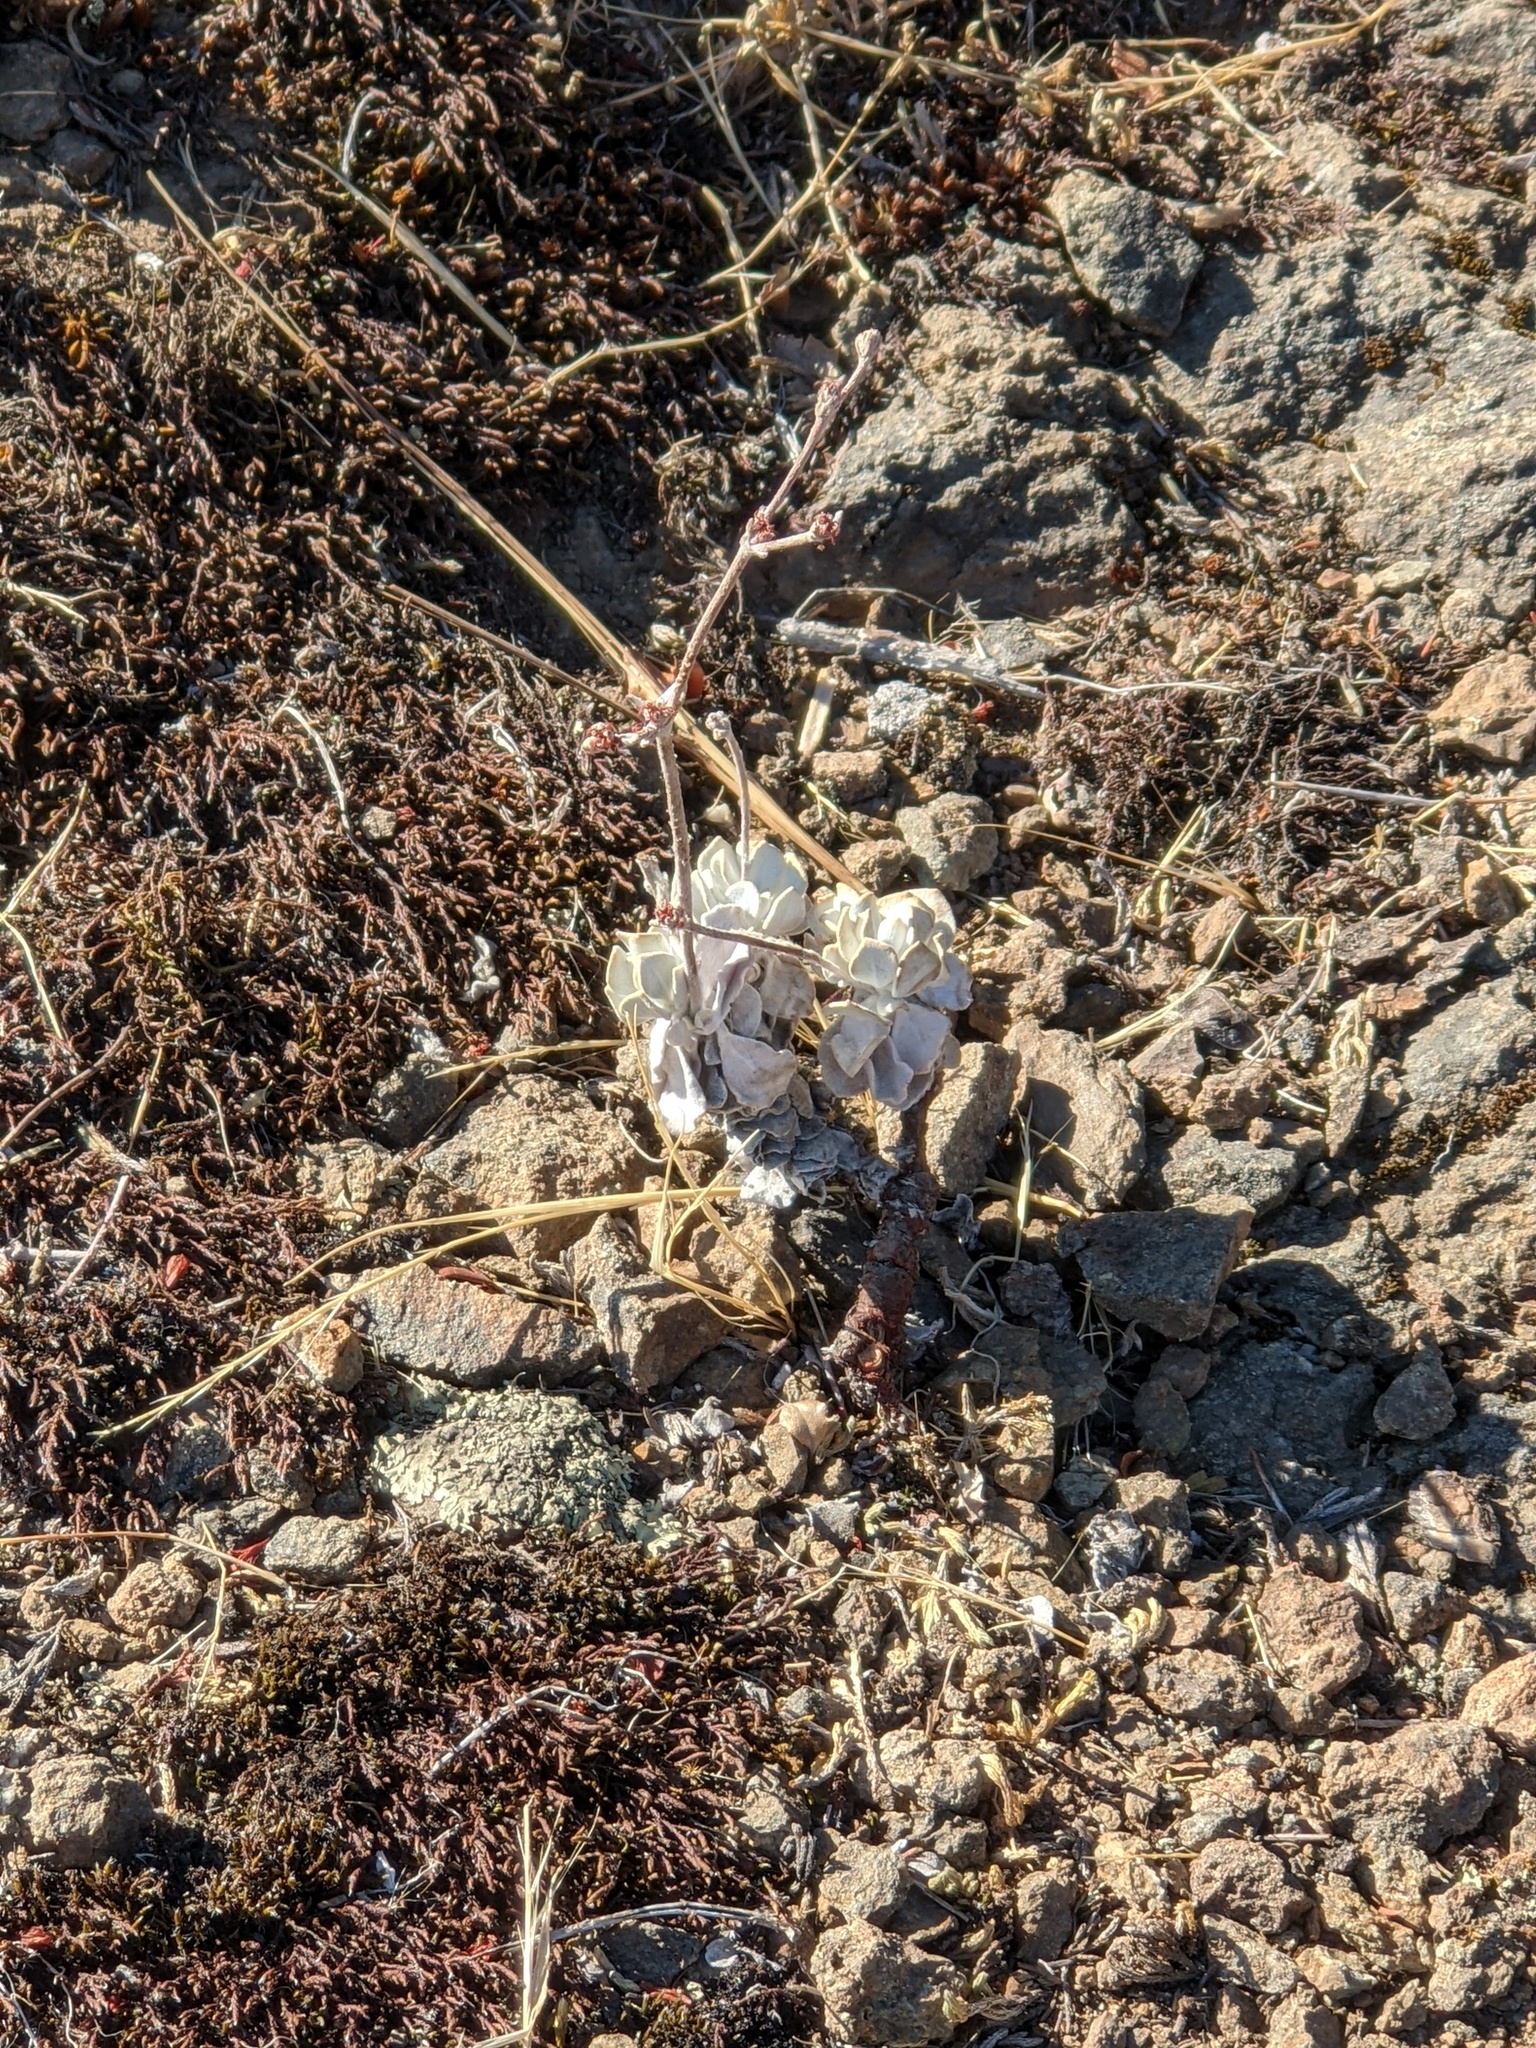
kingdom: Plantae
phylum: Tracheophyta
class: Magnoliopsida
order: Caryophyllales
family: Polygonaceae
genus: Eriogonum
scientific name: Eriogonum saxatile
